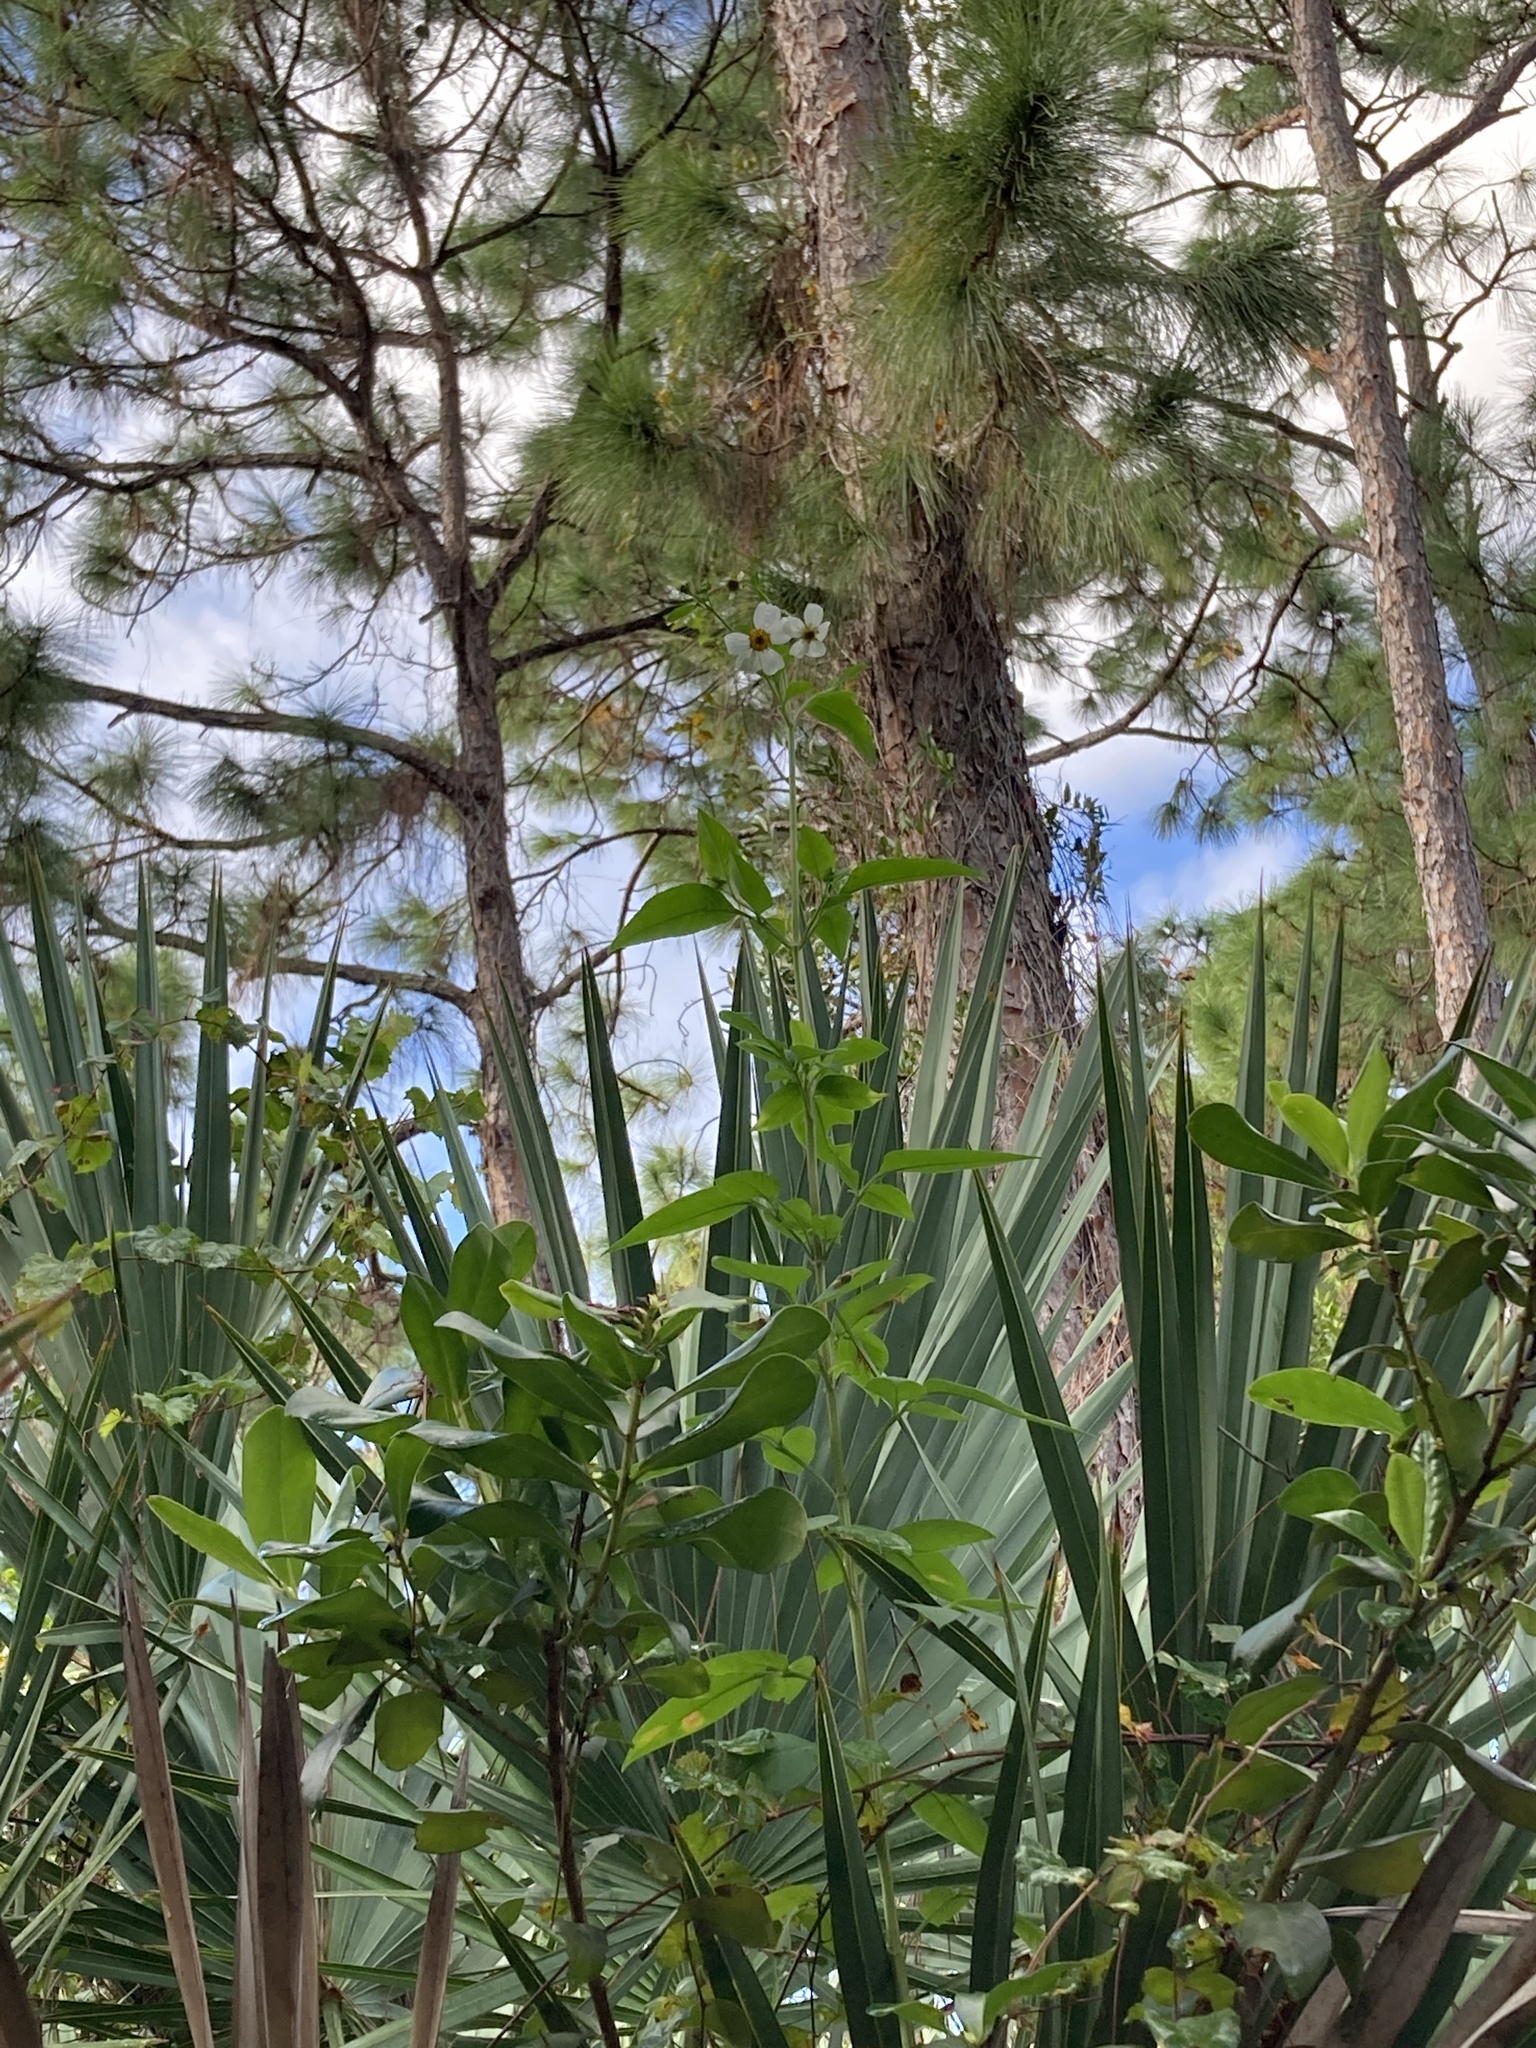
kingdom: Plantae
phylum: Tracheophyta
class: Magnoliopsida
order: Asterales
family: Asteraceae
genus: Bidens
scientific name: Bidens alba
